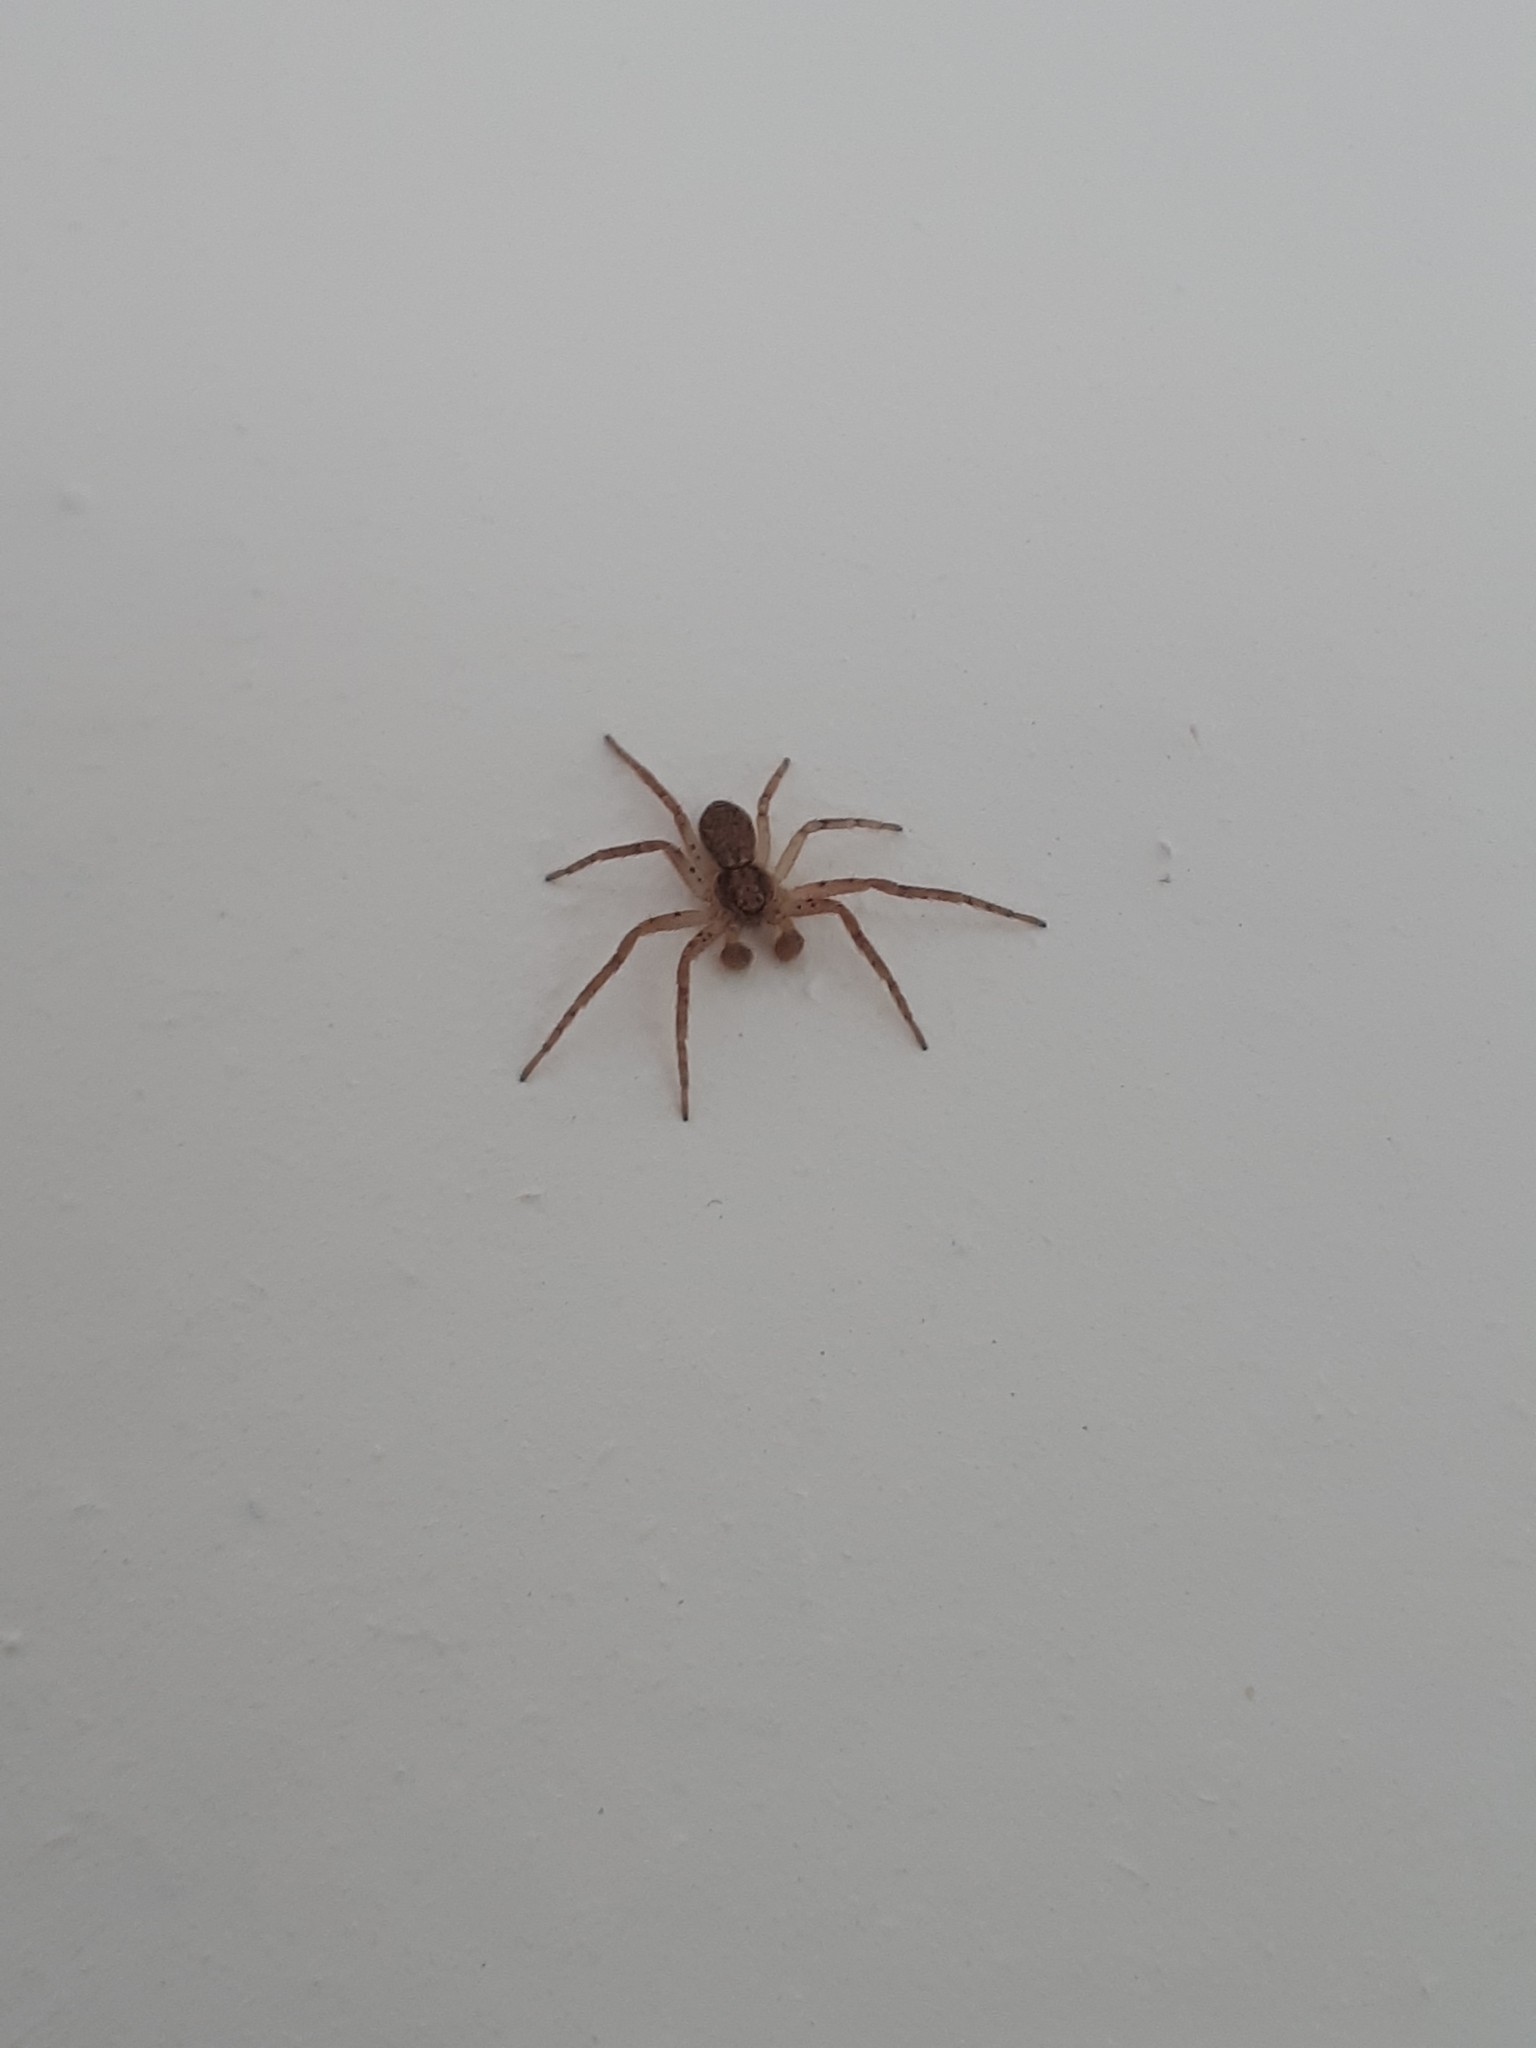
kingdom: Animalia
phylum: Arthropoda
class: Arachnida
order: Araneae
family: Philodromidae
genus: Philodromus
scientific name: Philodromus dispar
